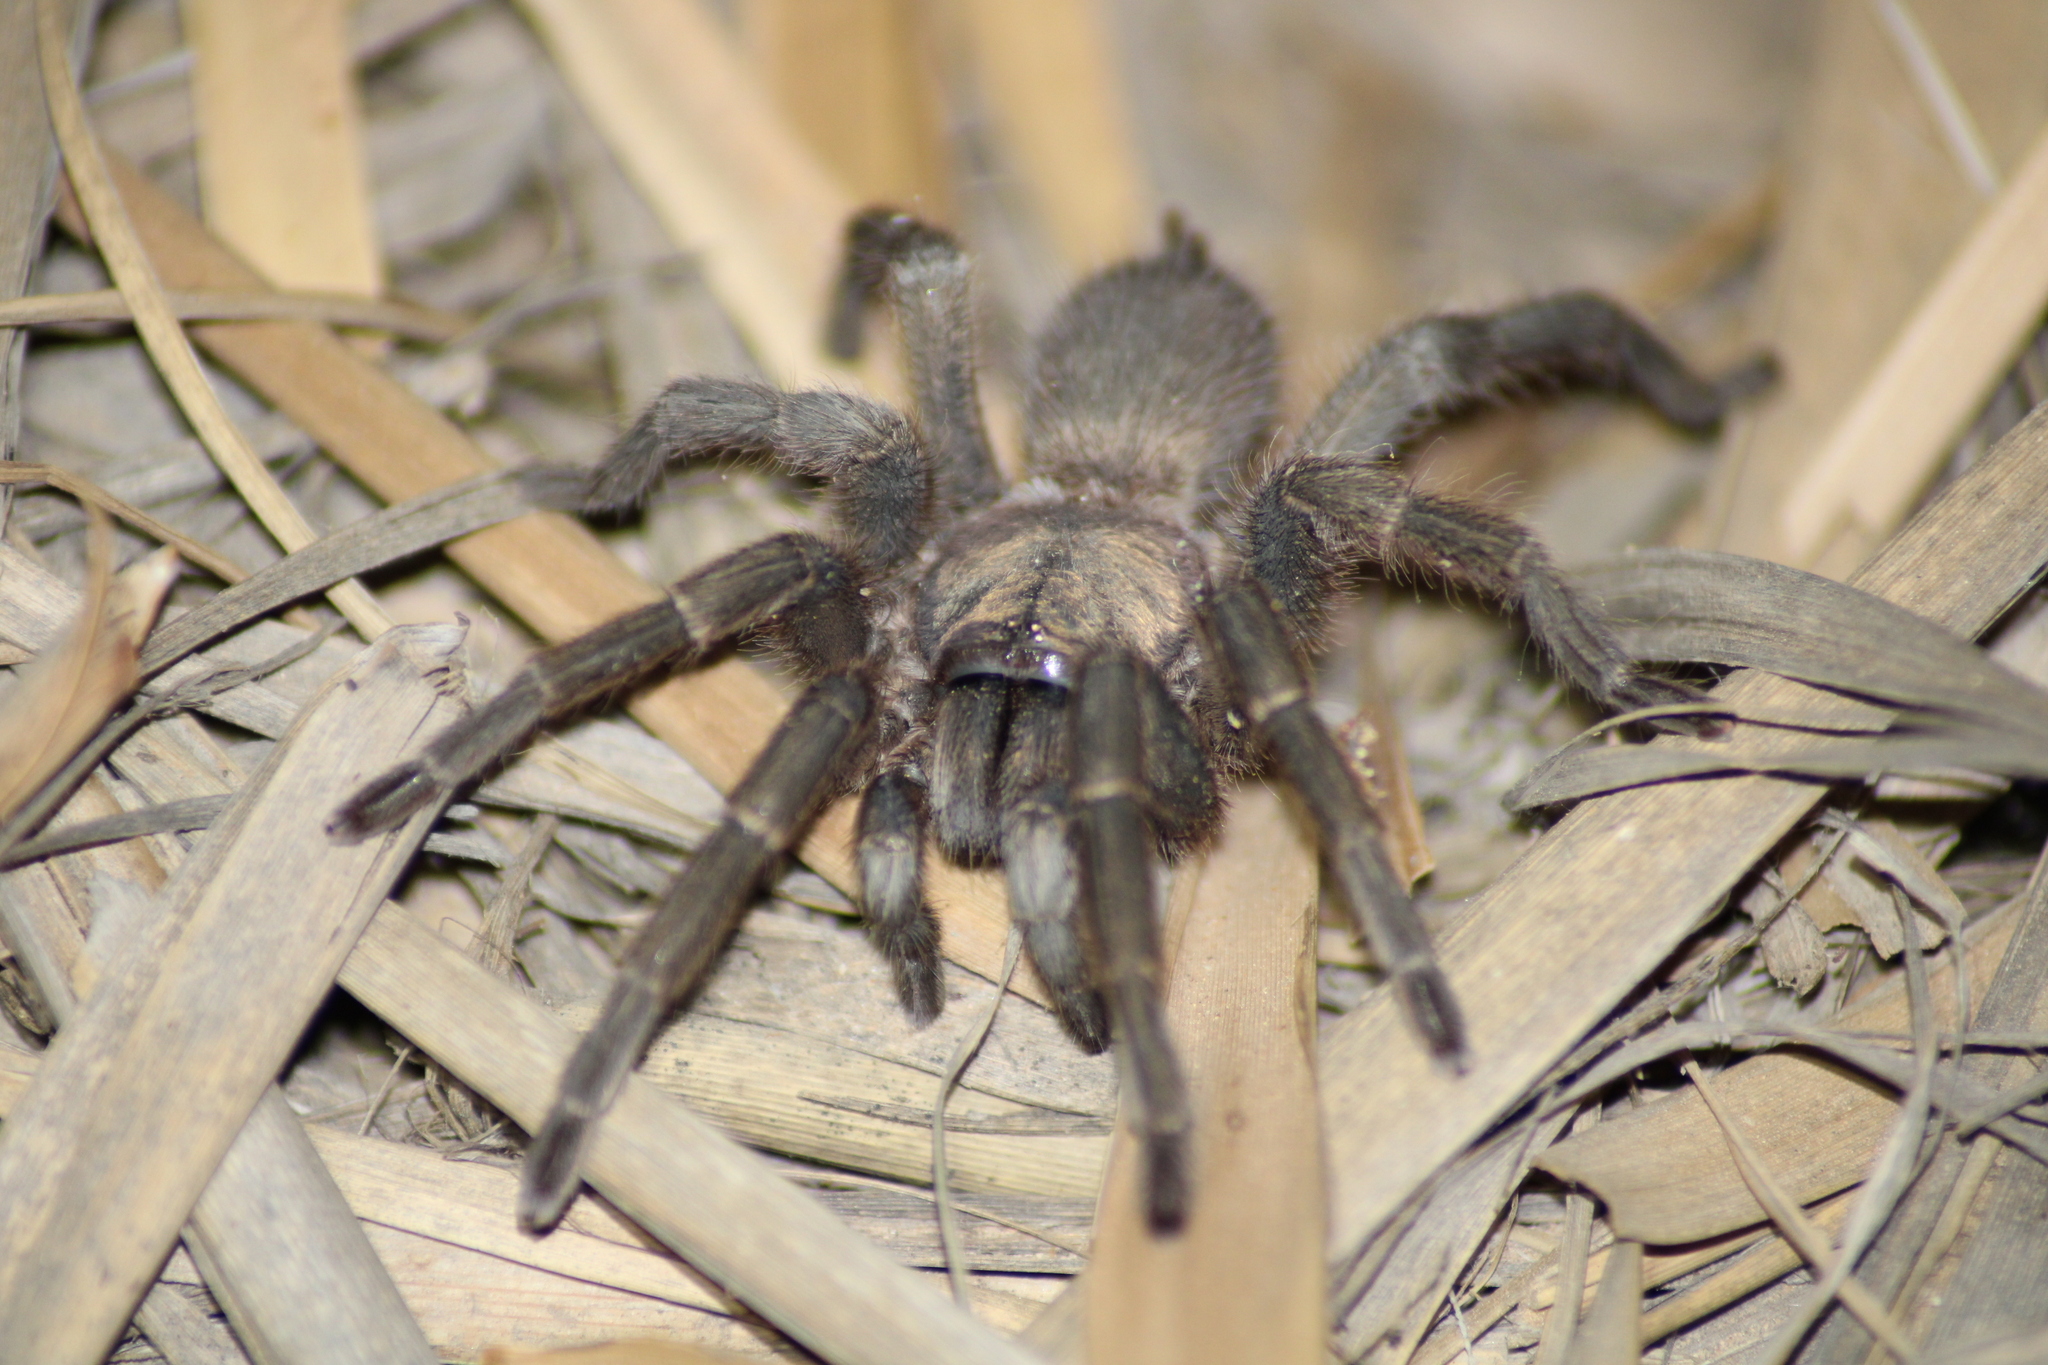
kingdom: Animalia
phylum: Arthropoda
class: Arachnida
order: Araneae
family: Theraphosidae
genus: Chaetopelma
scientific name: Chaetopelma olivaceum
